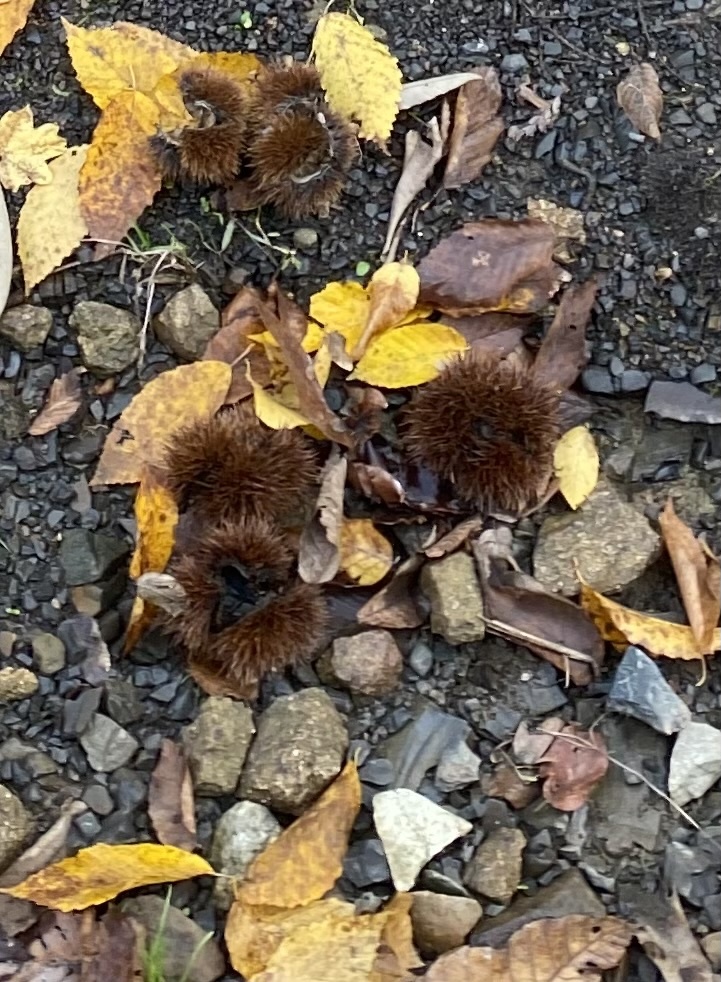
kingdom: Plantae
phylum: Tracheophyta
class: Magnoliopsida
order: Fagales
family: Fagaceae
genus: Castanea
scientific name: Castanea sativa
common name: Sweet chestnut
